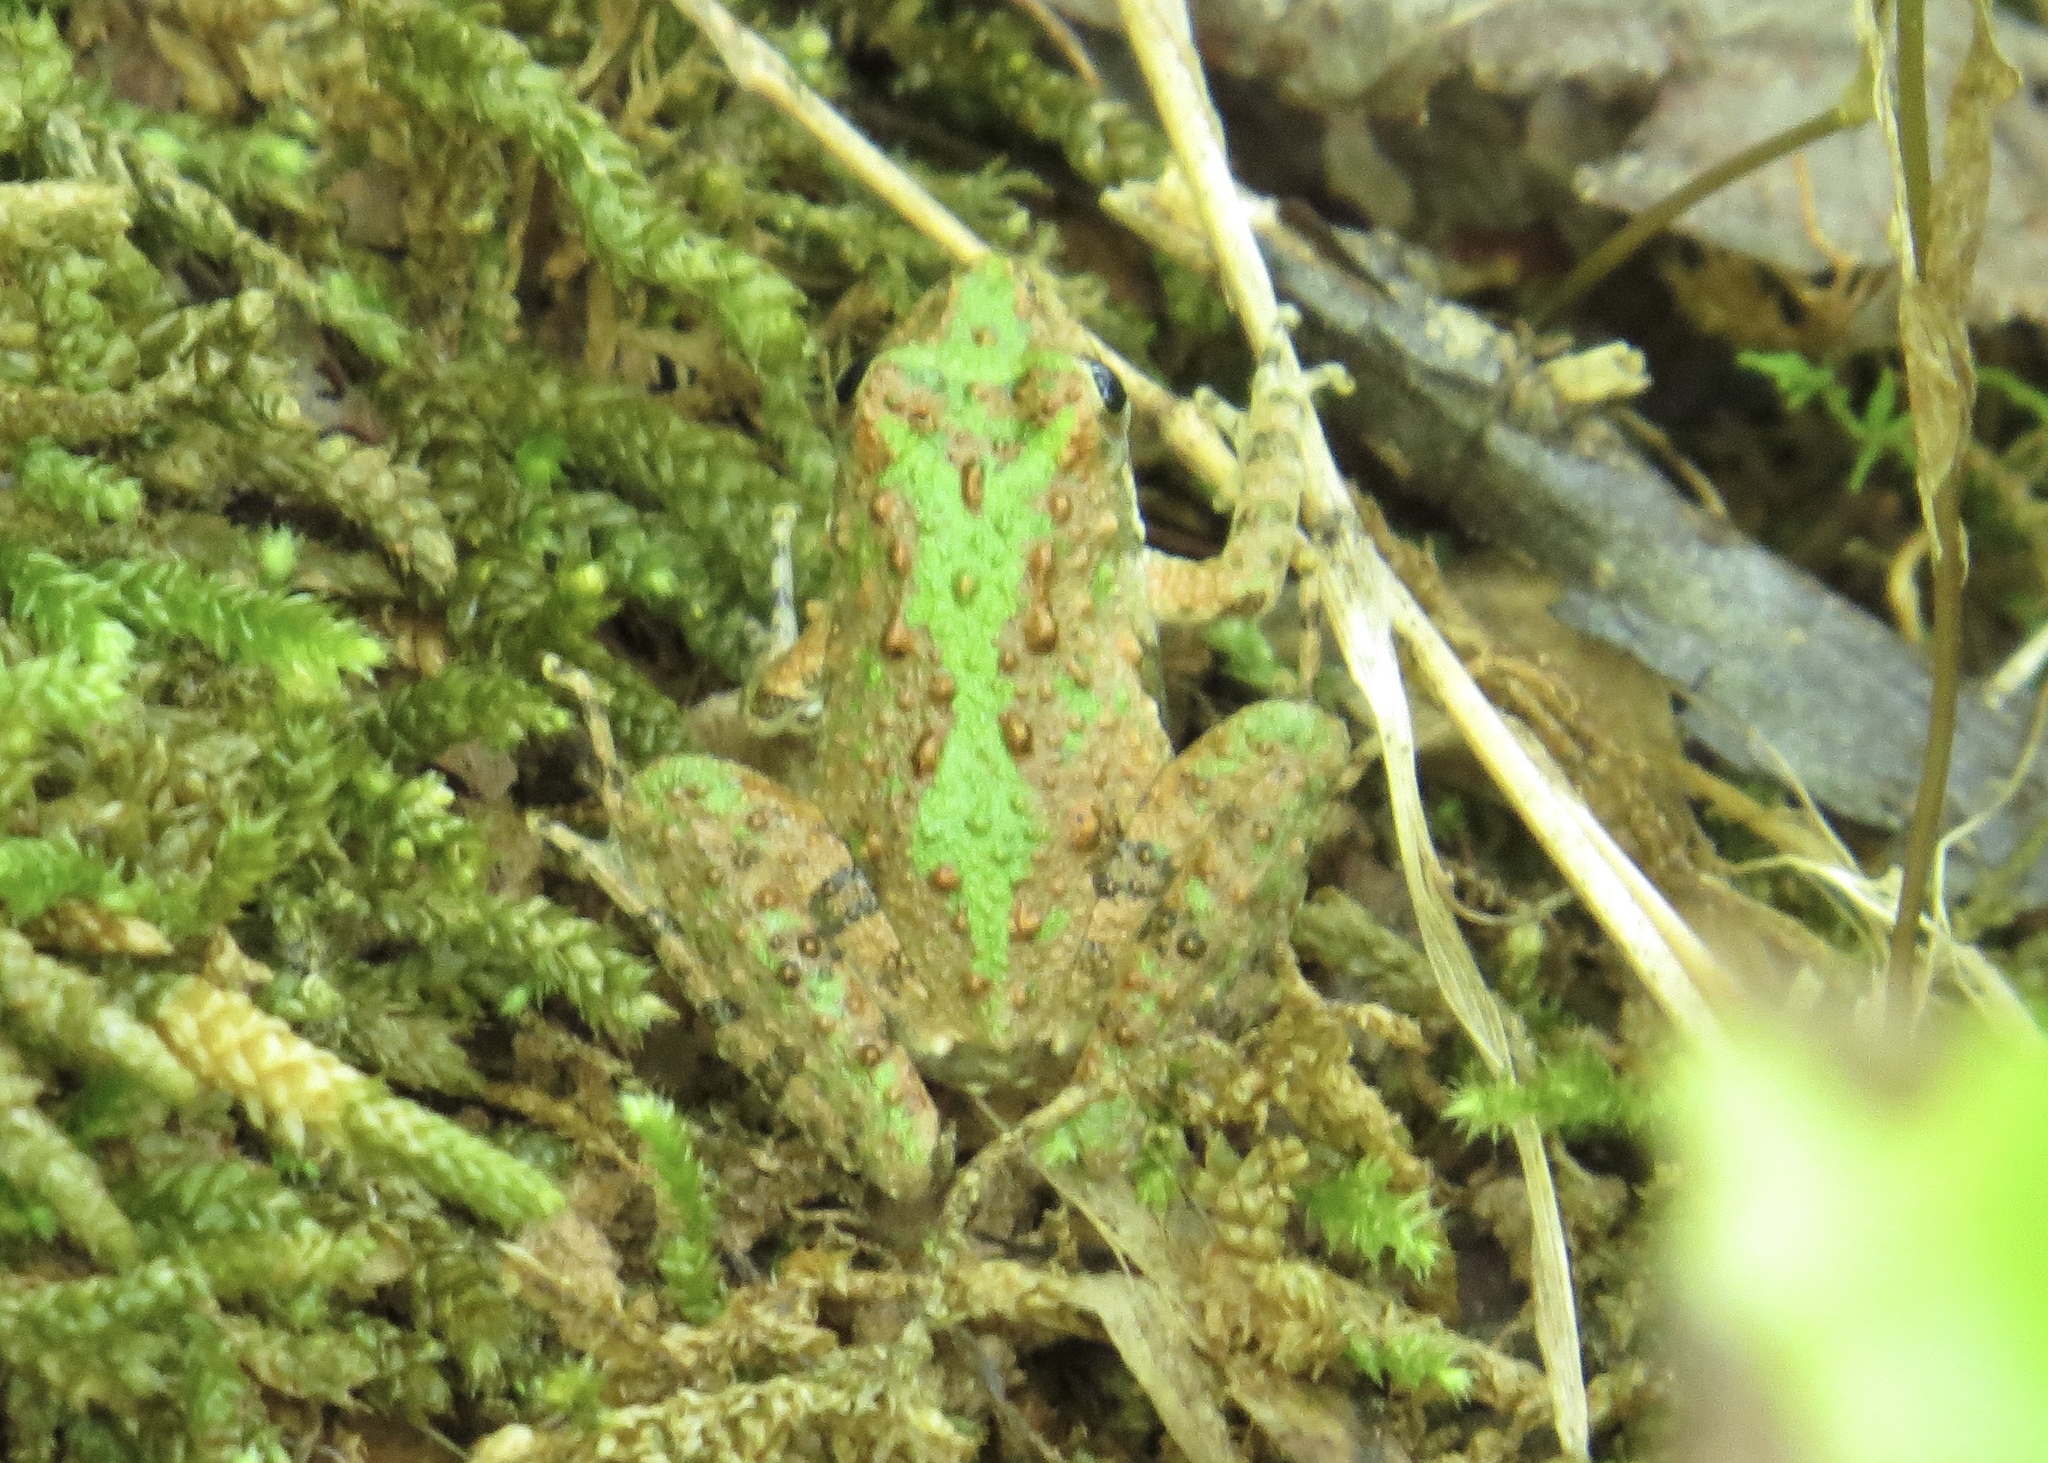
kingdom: Animalia
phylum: Chordata
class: Amphibia
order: Anura
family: Hylidae
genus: Acris
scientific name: Acris crepitans
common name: Northern cricket frog
